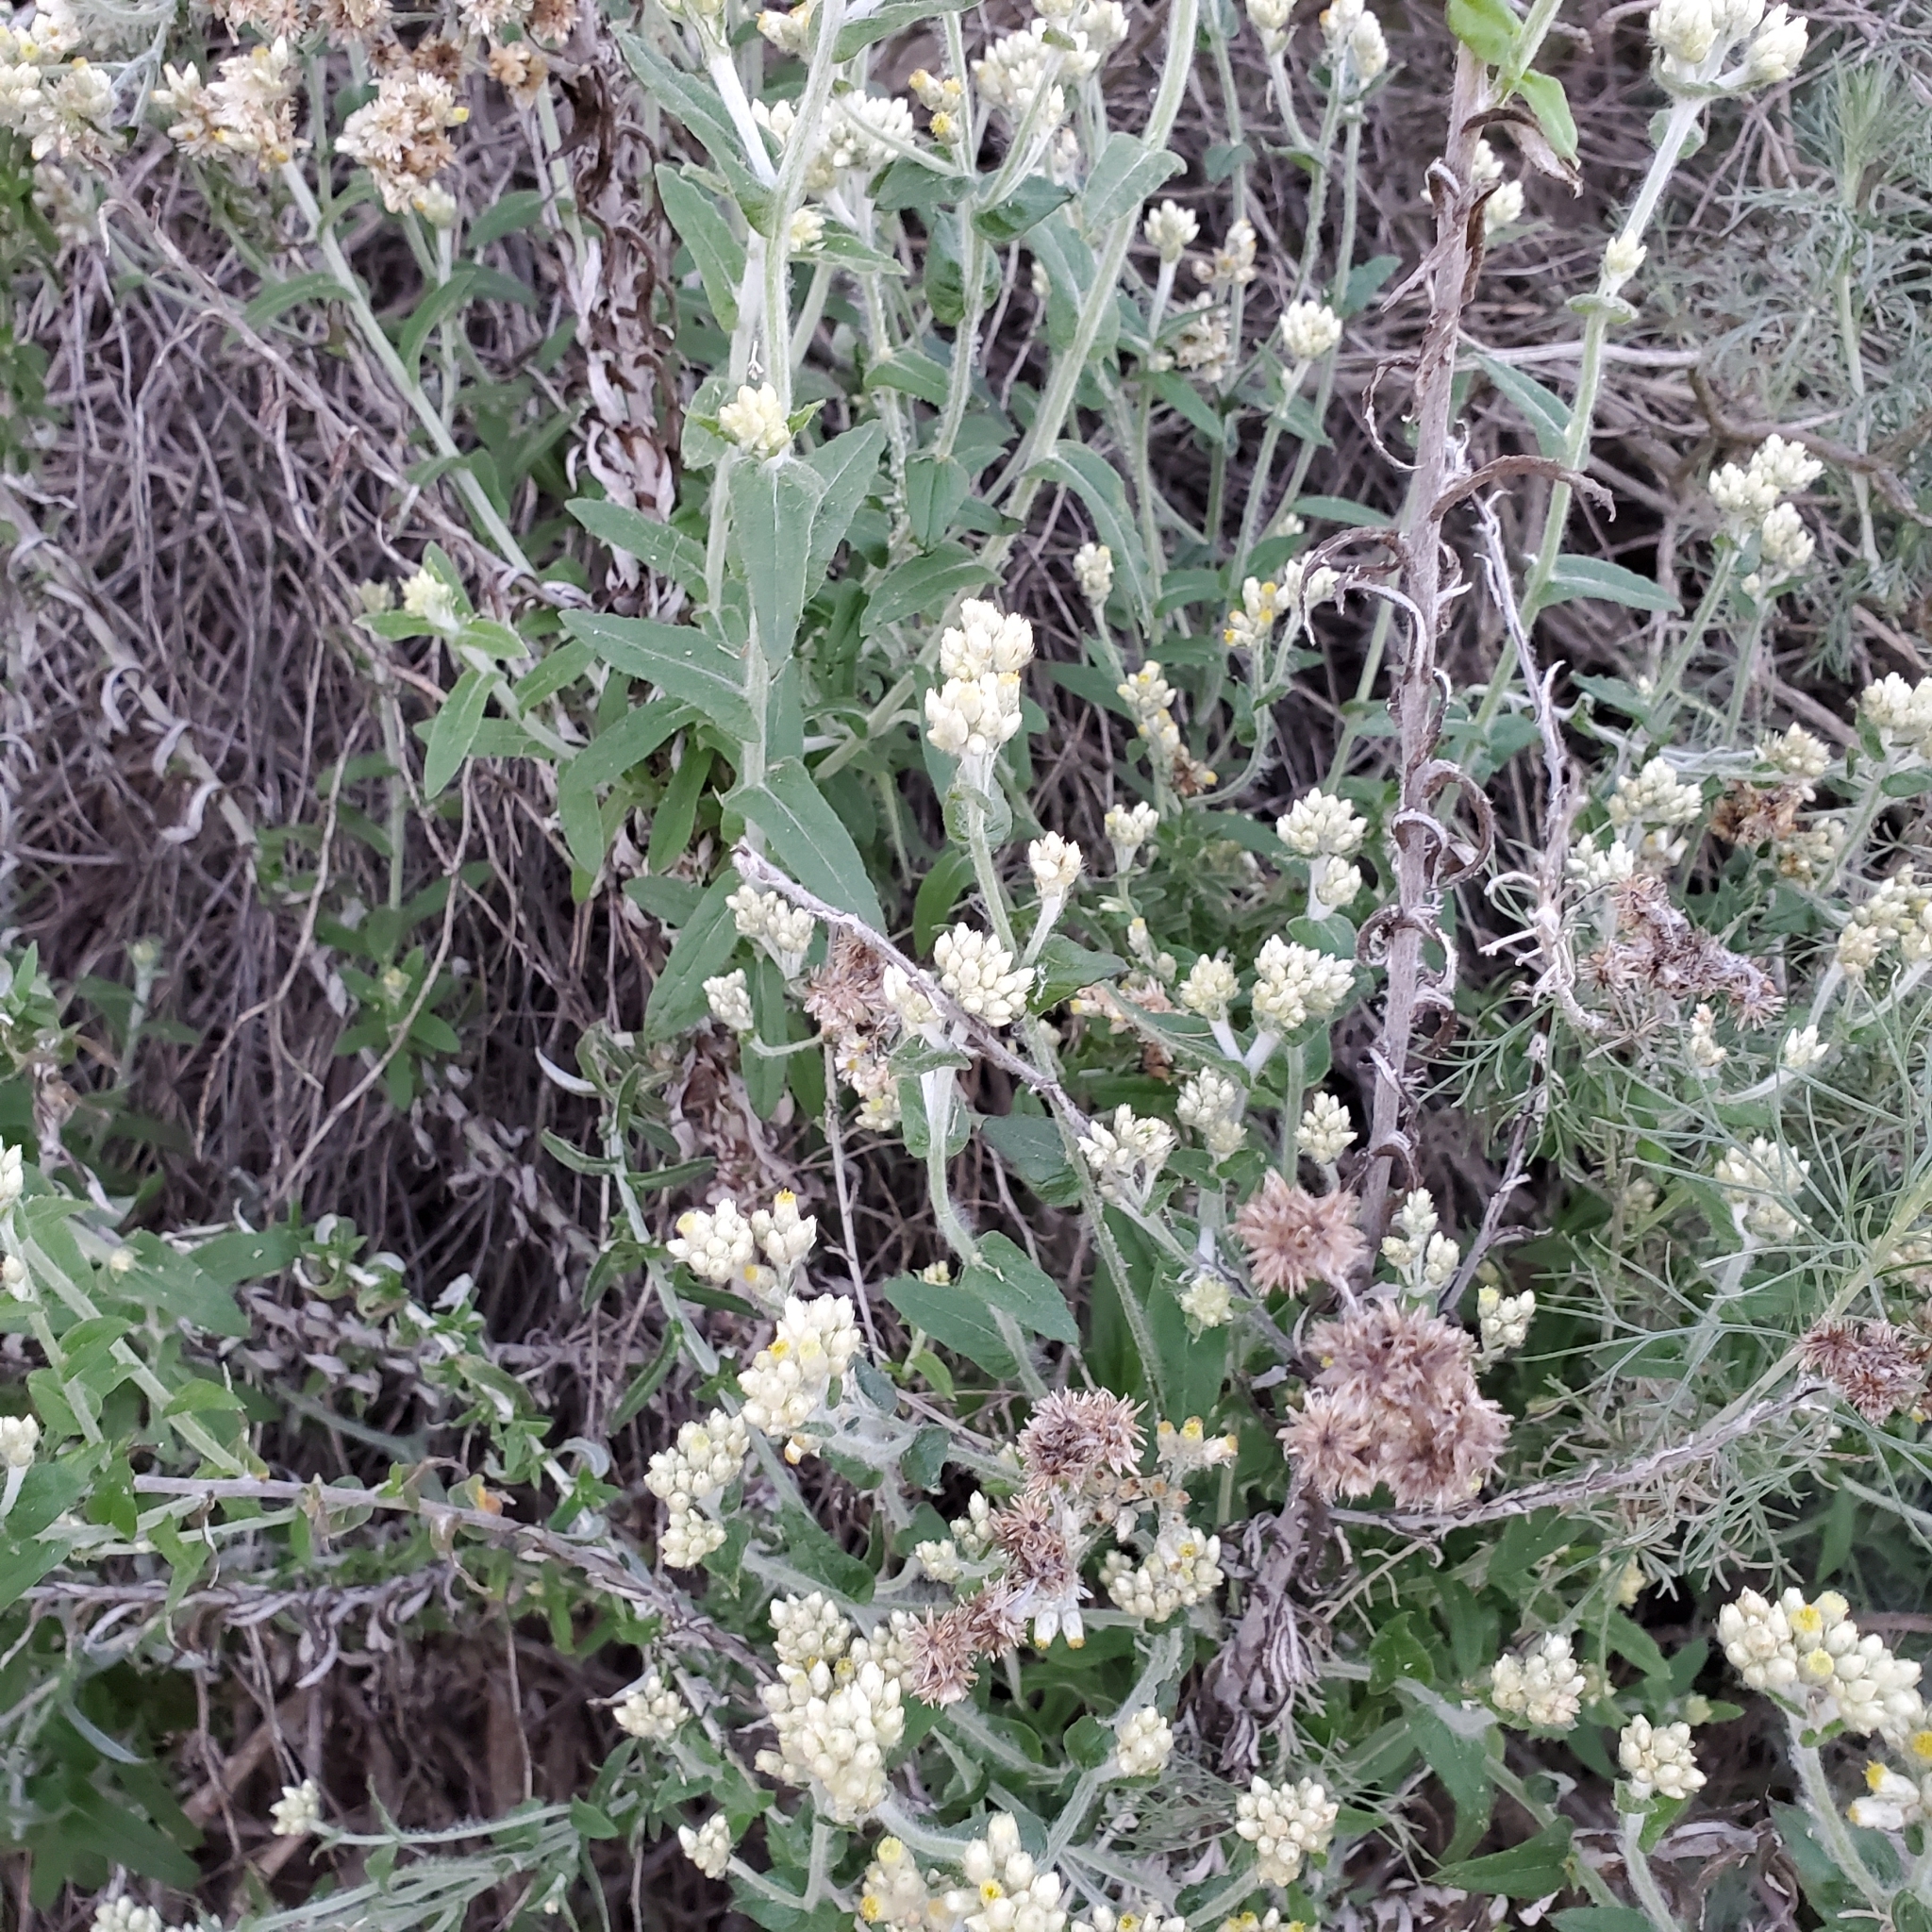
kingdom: Plantae
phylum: Tracheophyta
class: Magnoliopsida
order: Asterales
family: Asteraceae
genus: Pseudognaphalium
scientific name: Pseudognaphalium biolettii
